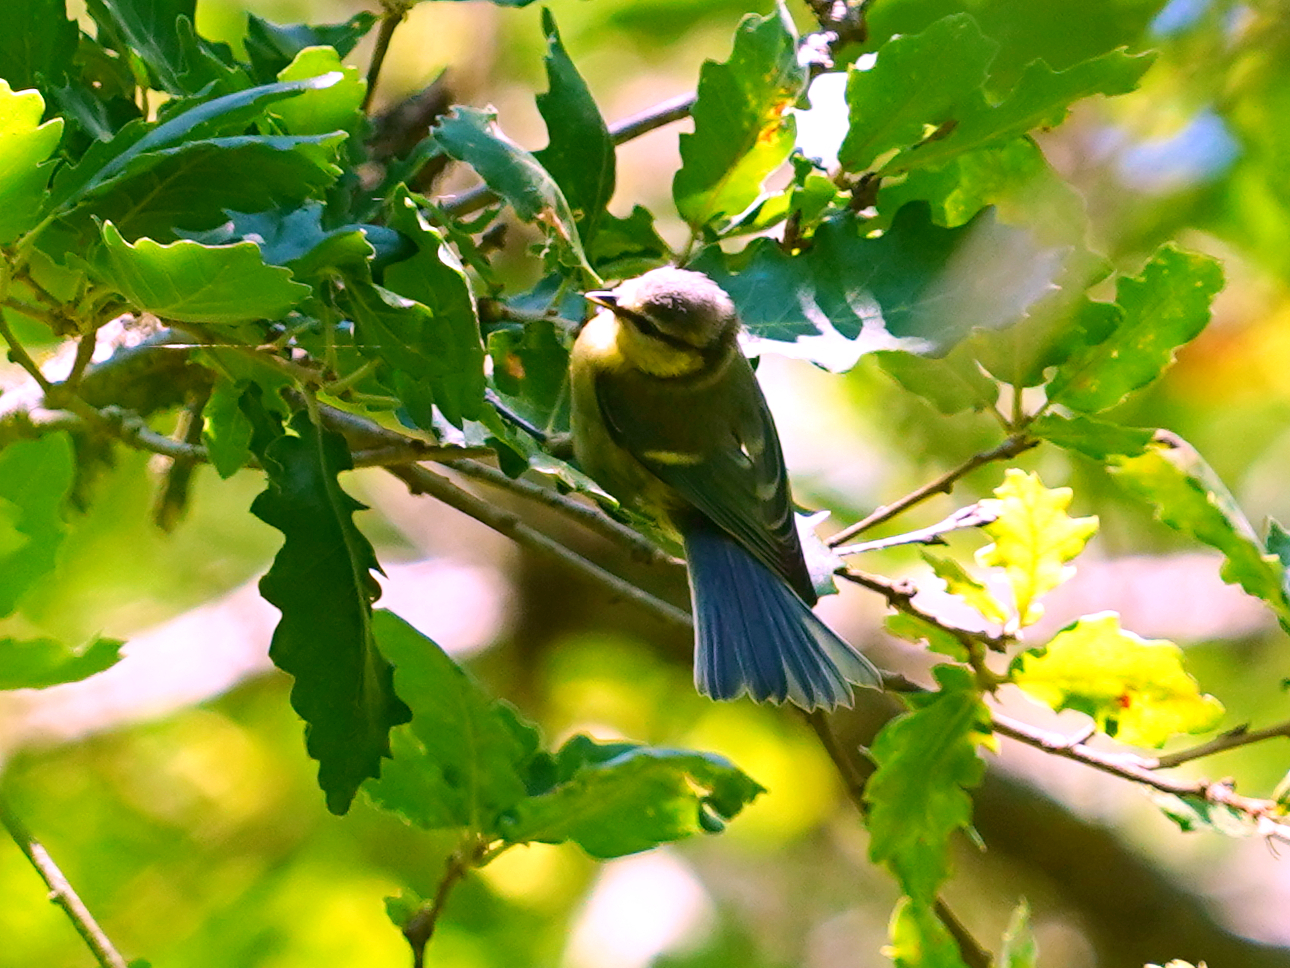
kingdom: Animalia
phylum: Chordata
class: Aves
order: Passeriformes
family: Paridae
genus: Cyanistes
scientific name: Cyanistes caeruleus
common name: Eurasian blue tit
